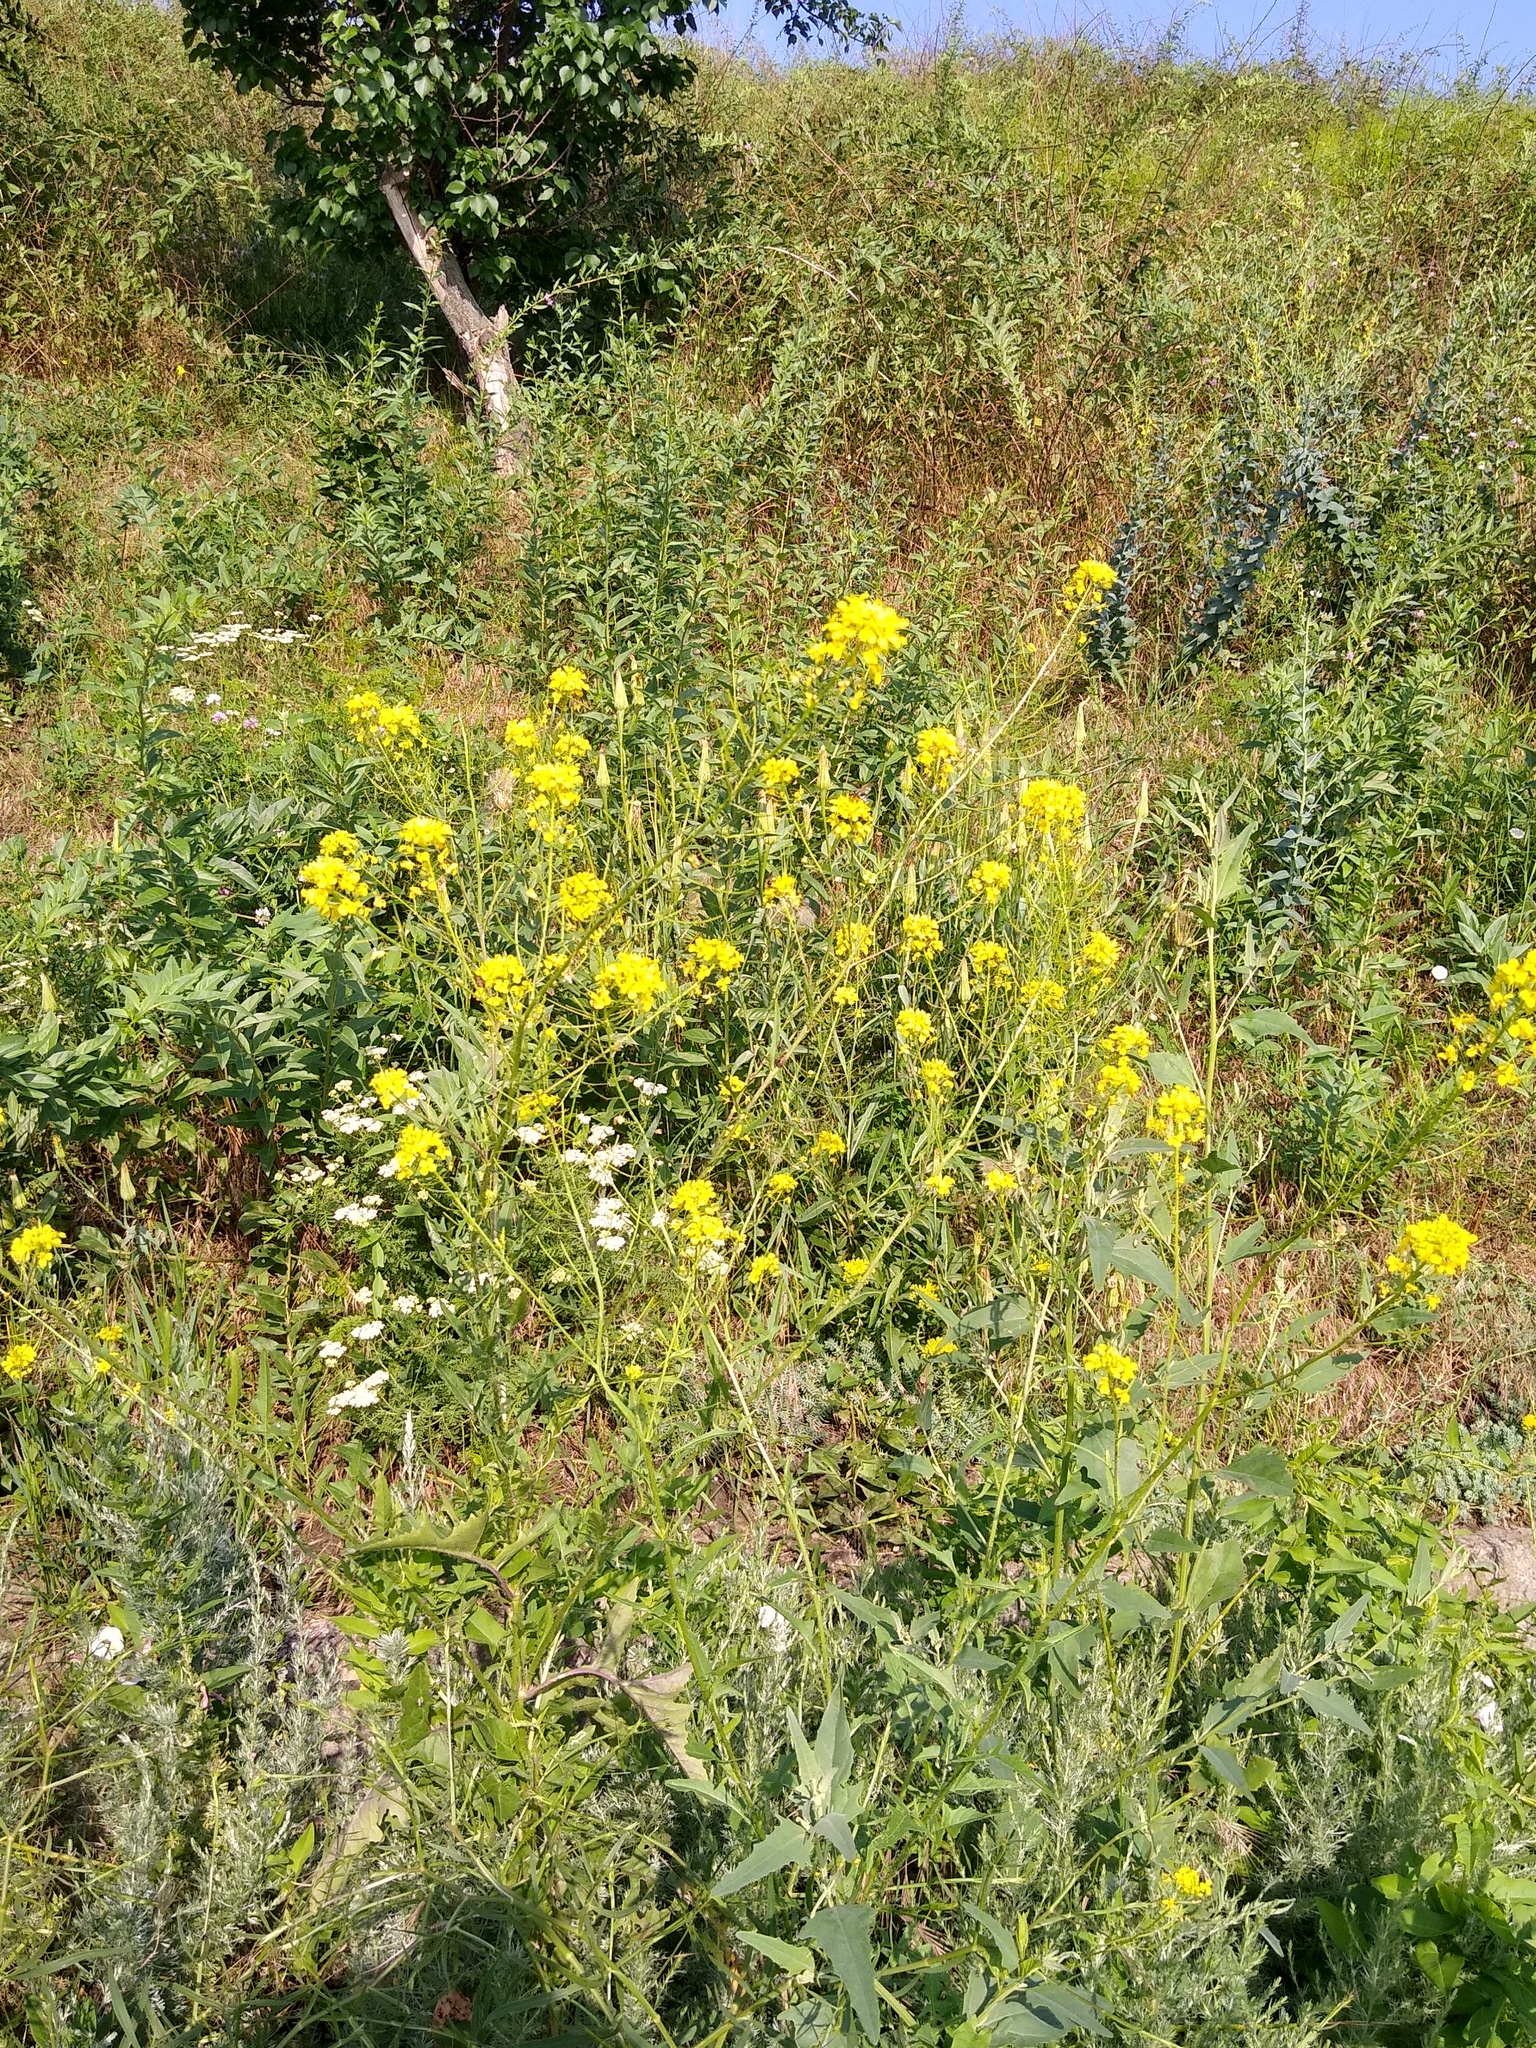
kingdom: Plantae
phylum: Tracheophyta
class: Magnoliopsida
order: Brassicales
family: Brassicaceae
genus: Sisymbrium
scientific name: Sisymbrium loeselii
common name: False london-rocket
